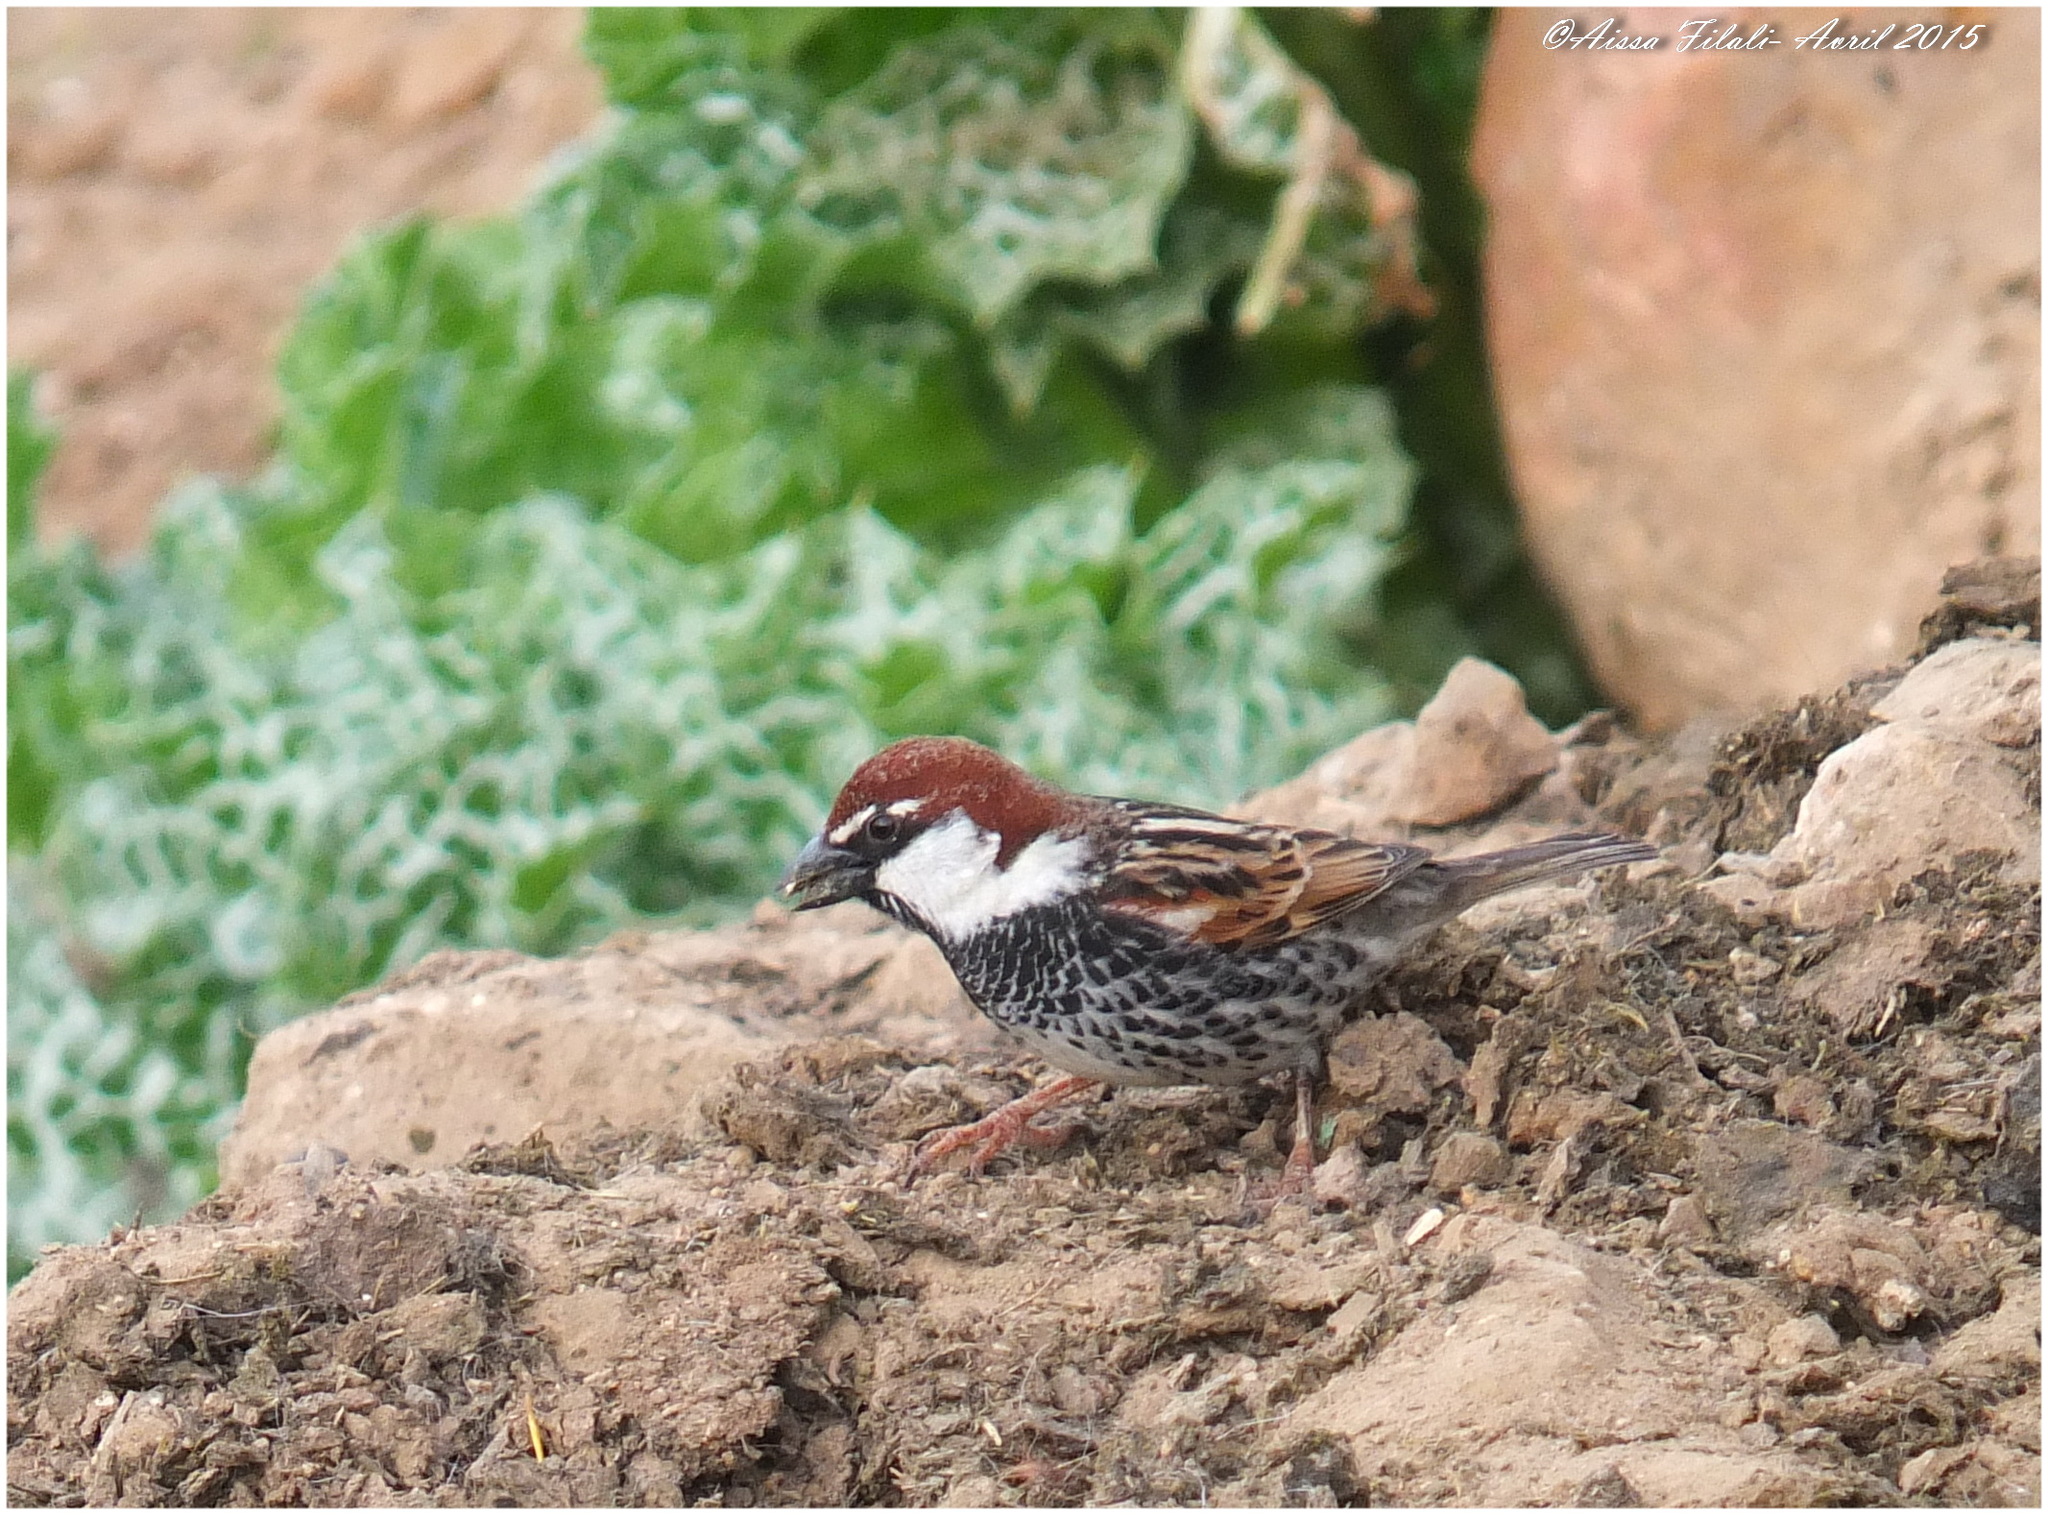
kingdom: Animalia
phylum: Chordata
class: Aves
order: Passeriformes
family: Passeridae
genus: Passer
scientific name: Passer hispaniolensis
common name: Spanish sparrow
